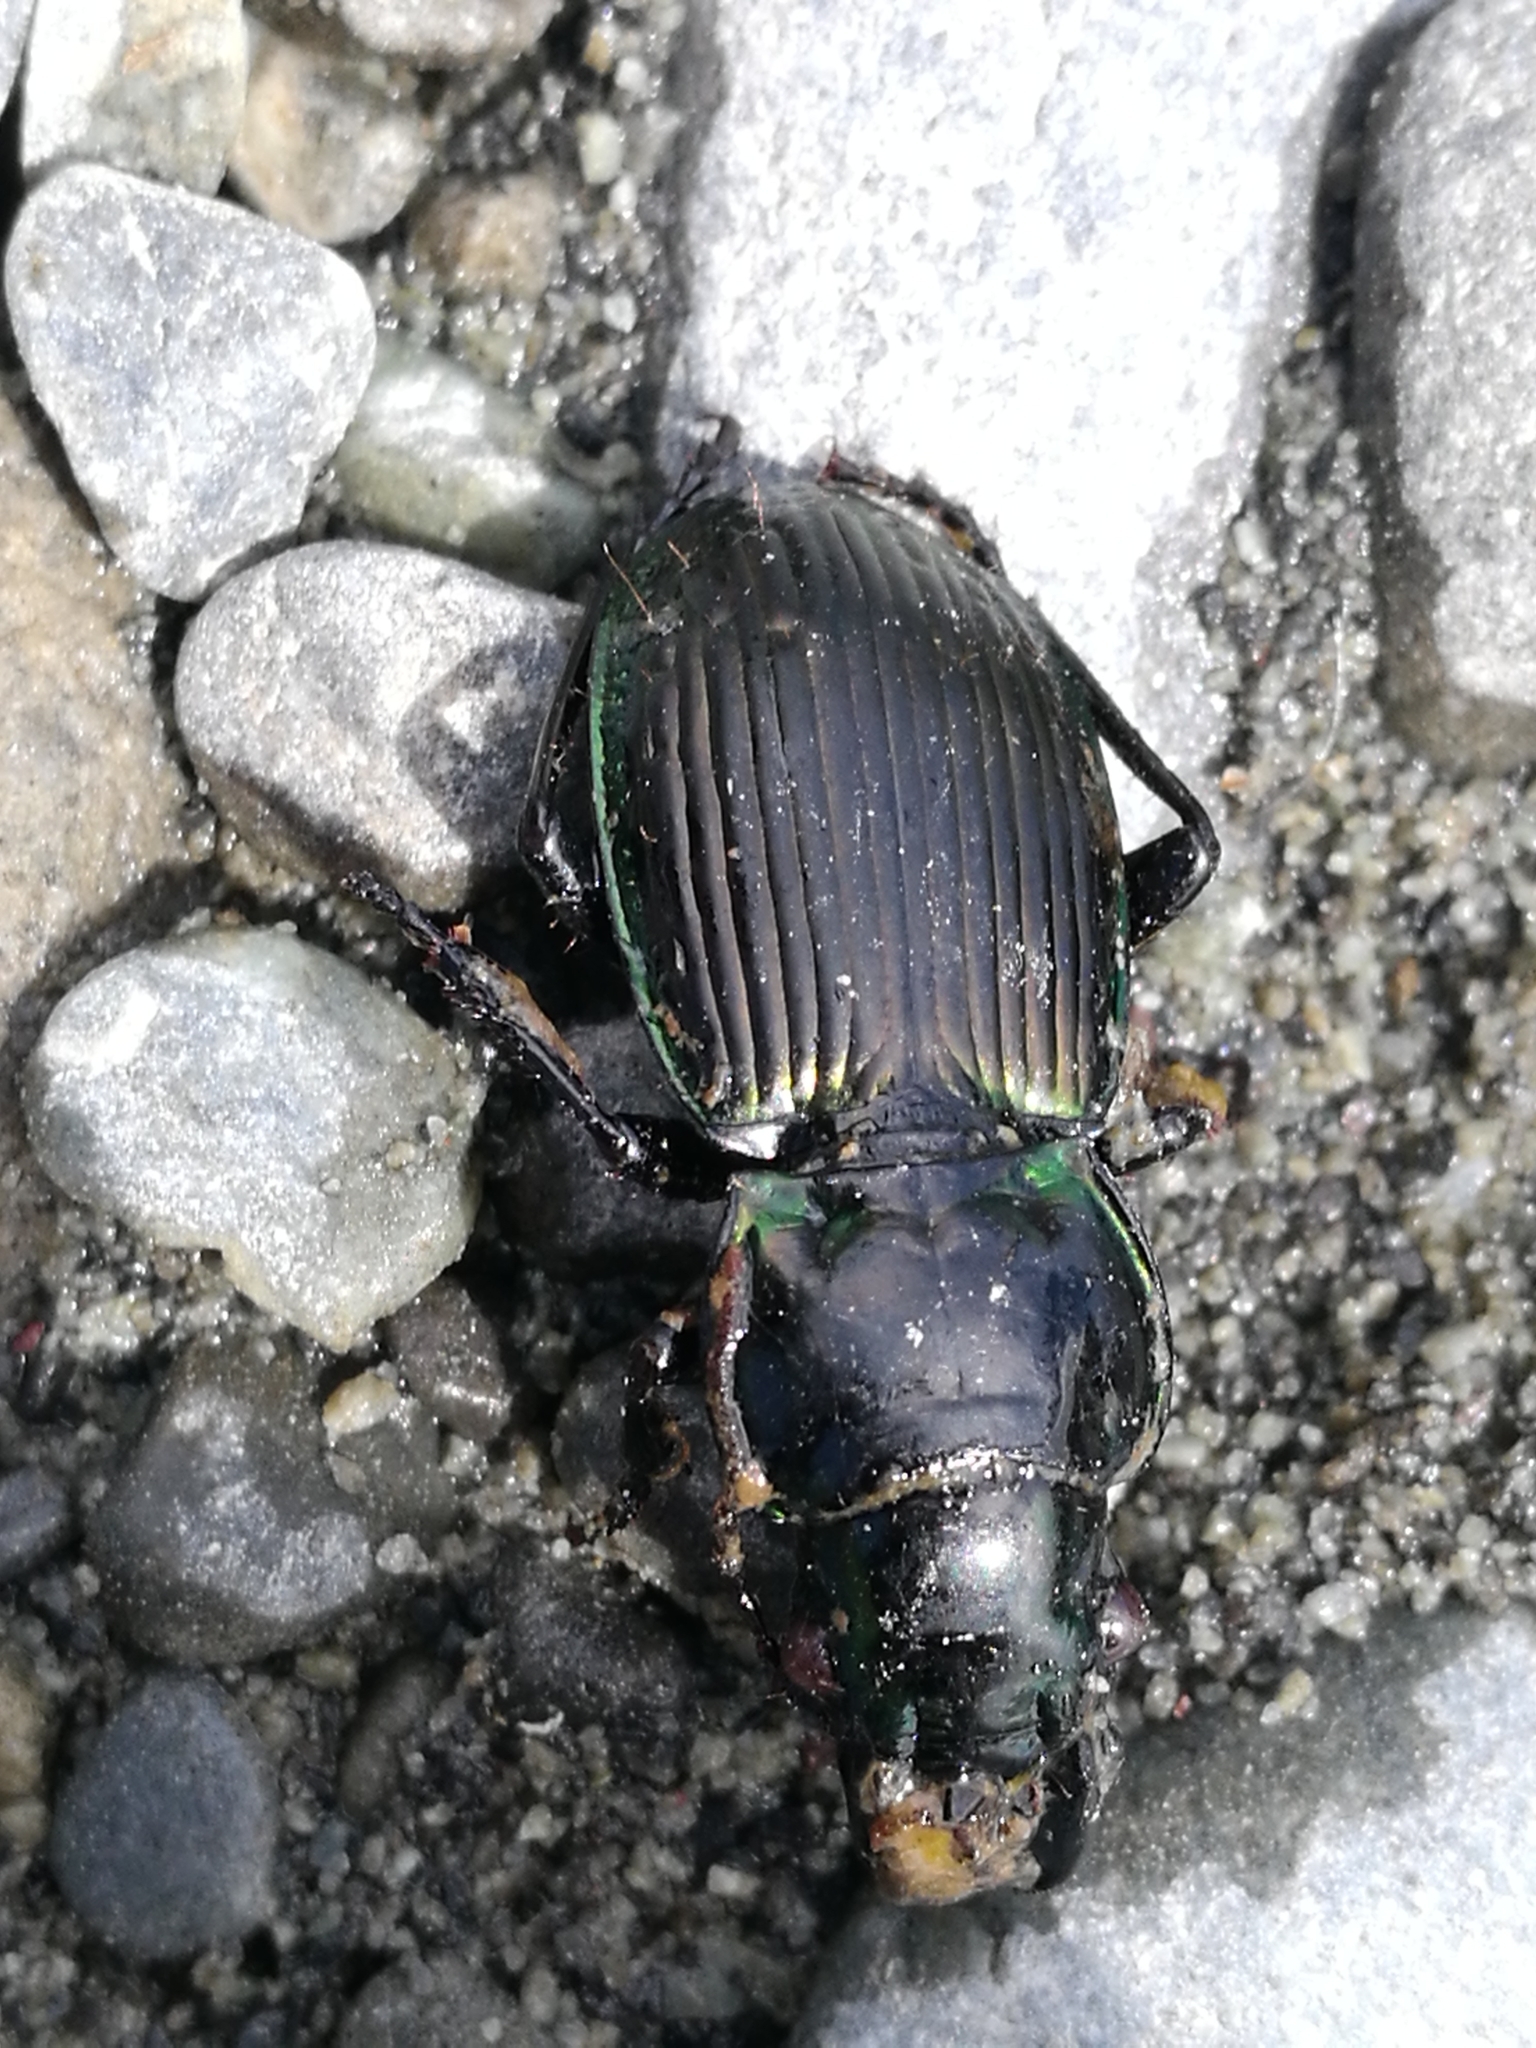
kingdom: Animalia
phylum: Arthropoda
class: Insecta
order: Coleoptera
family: Carabidae
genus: Megadromus
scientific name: Megadromus antarcticus
